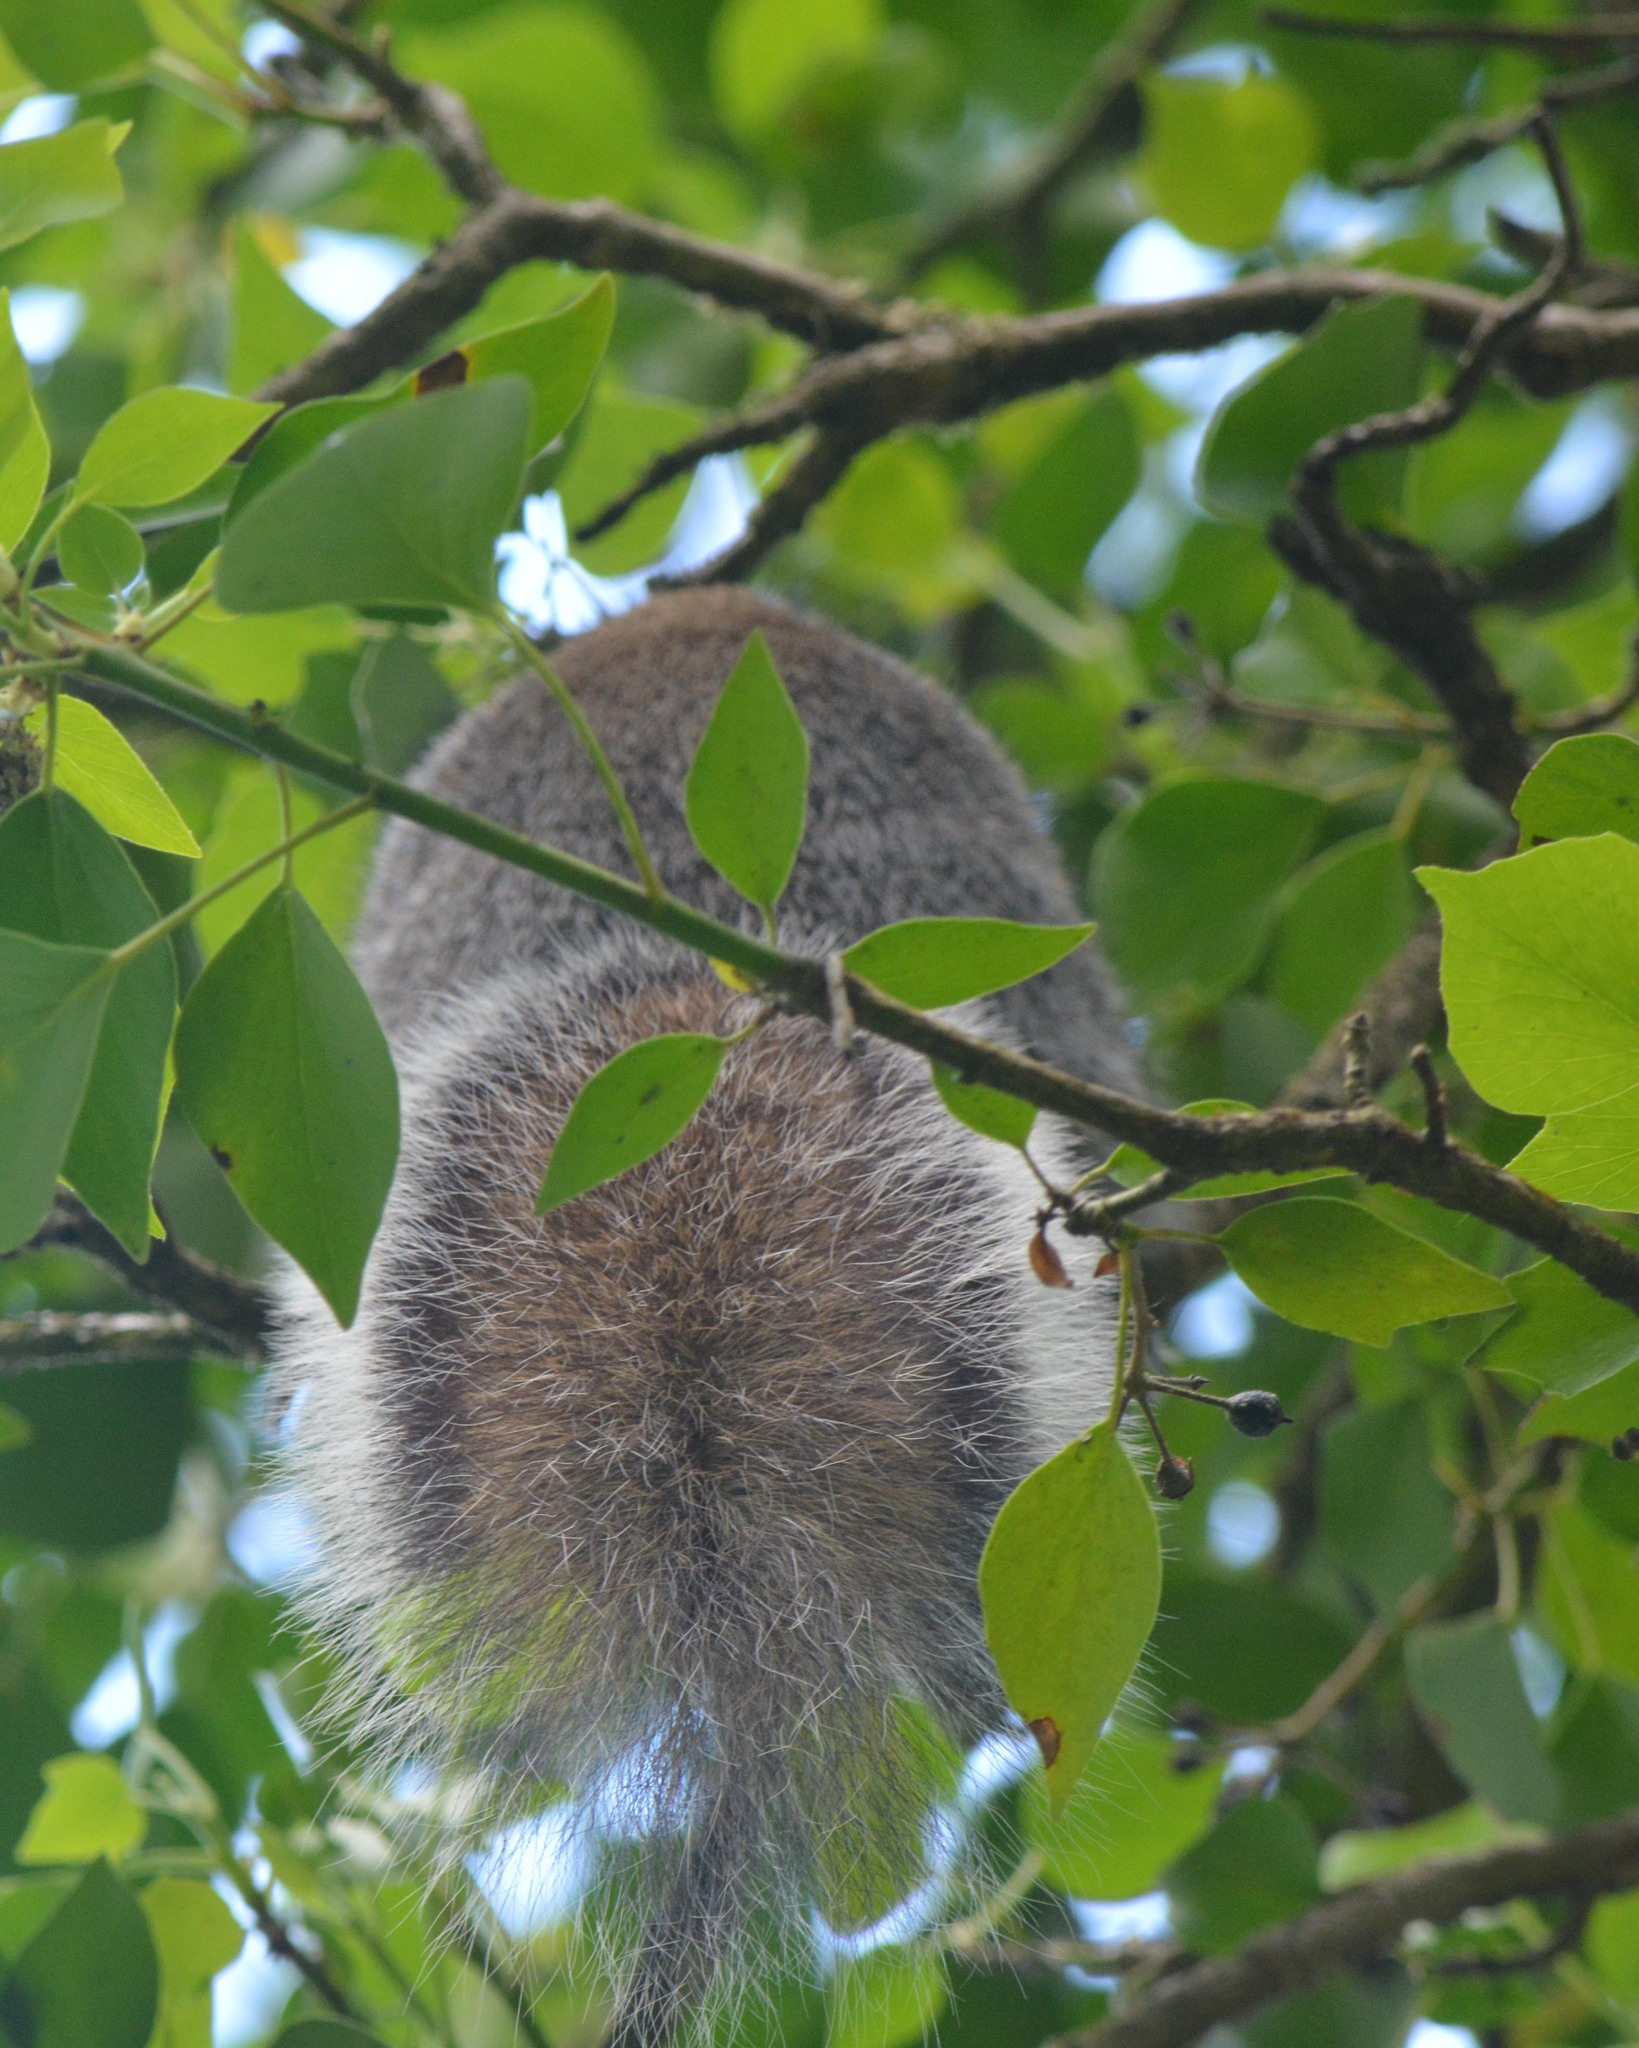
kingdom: Animalia
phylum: Chordata
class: Mammalia
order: Rodentia
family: Sciuridae
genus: Sciurus
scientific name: Sciurus carolinensis
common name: Eastern gray squirrel
